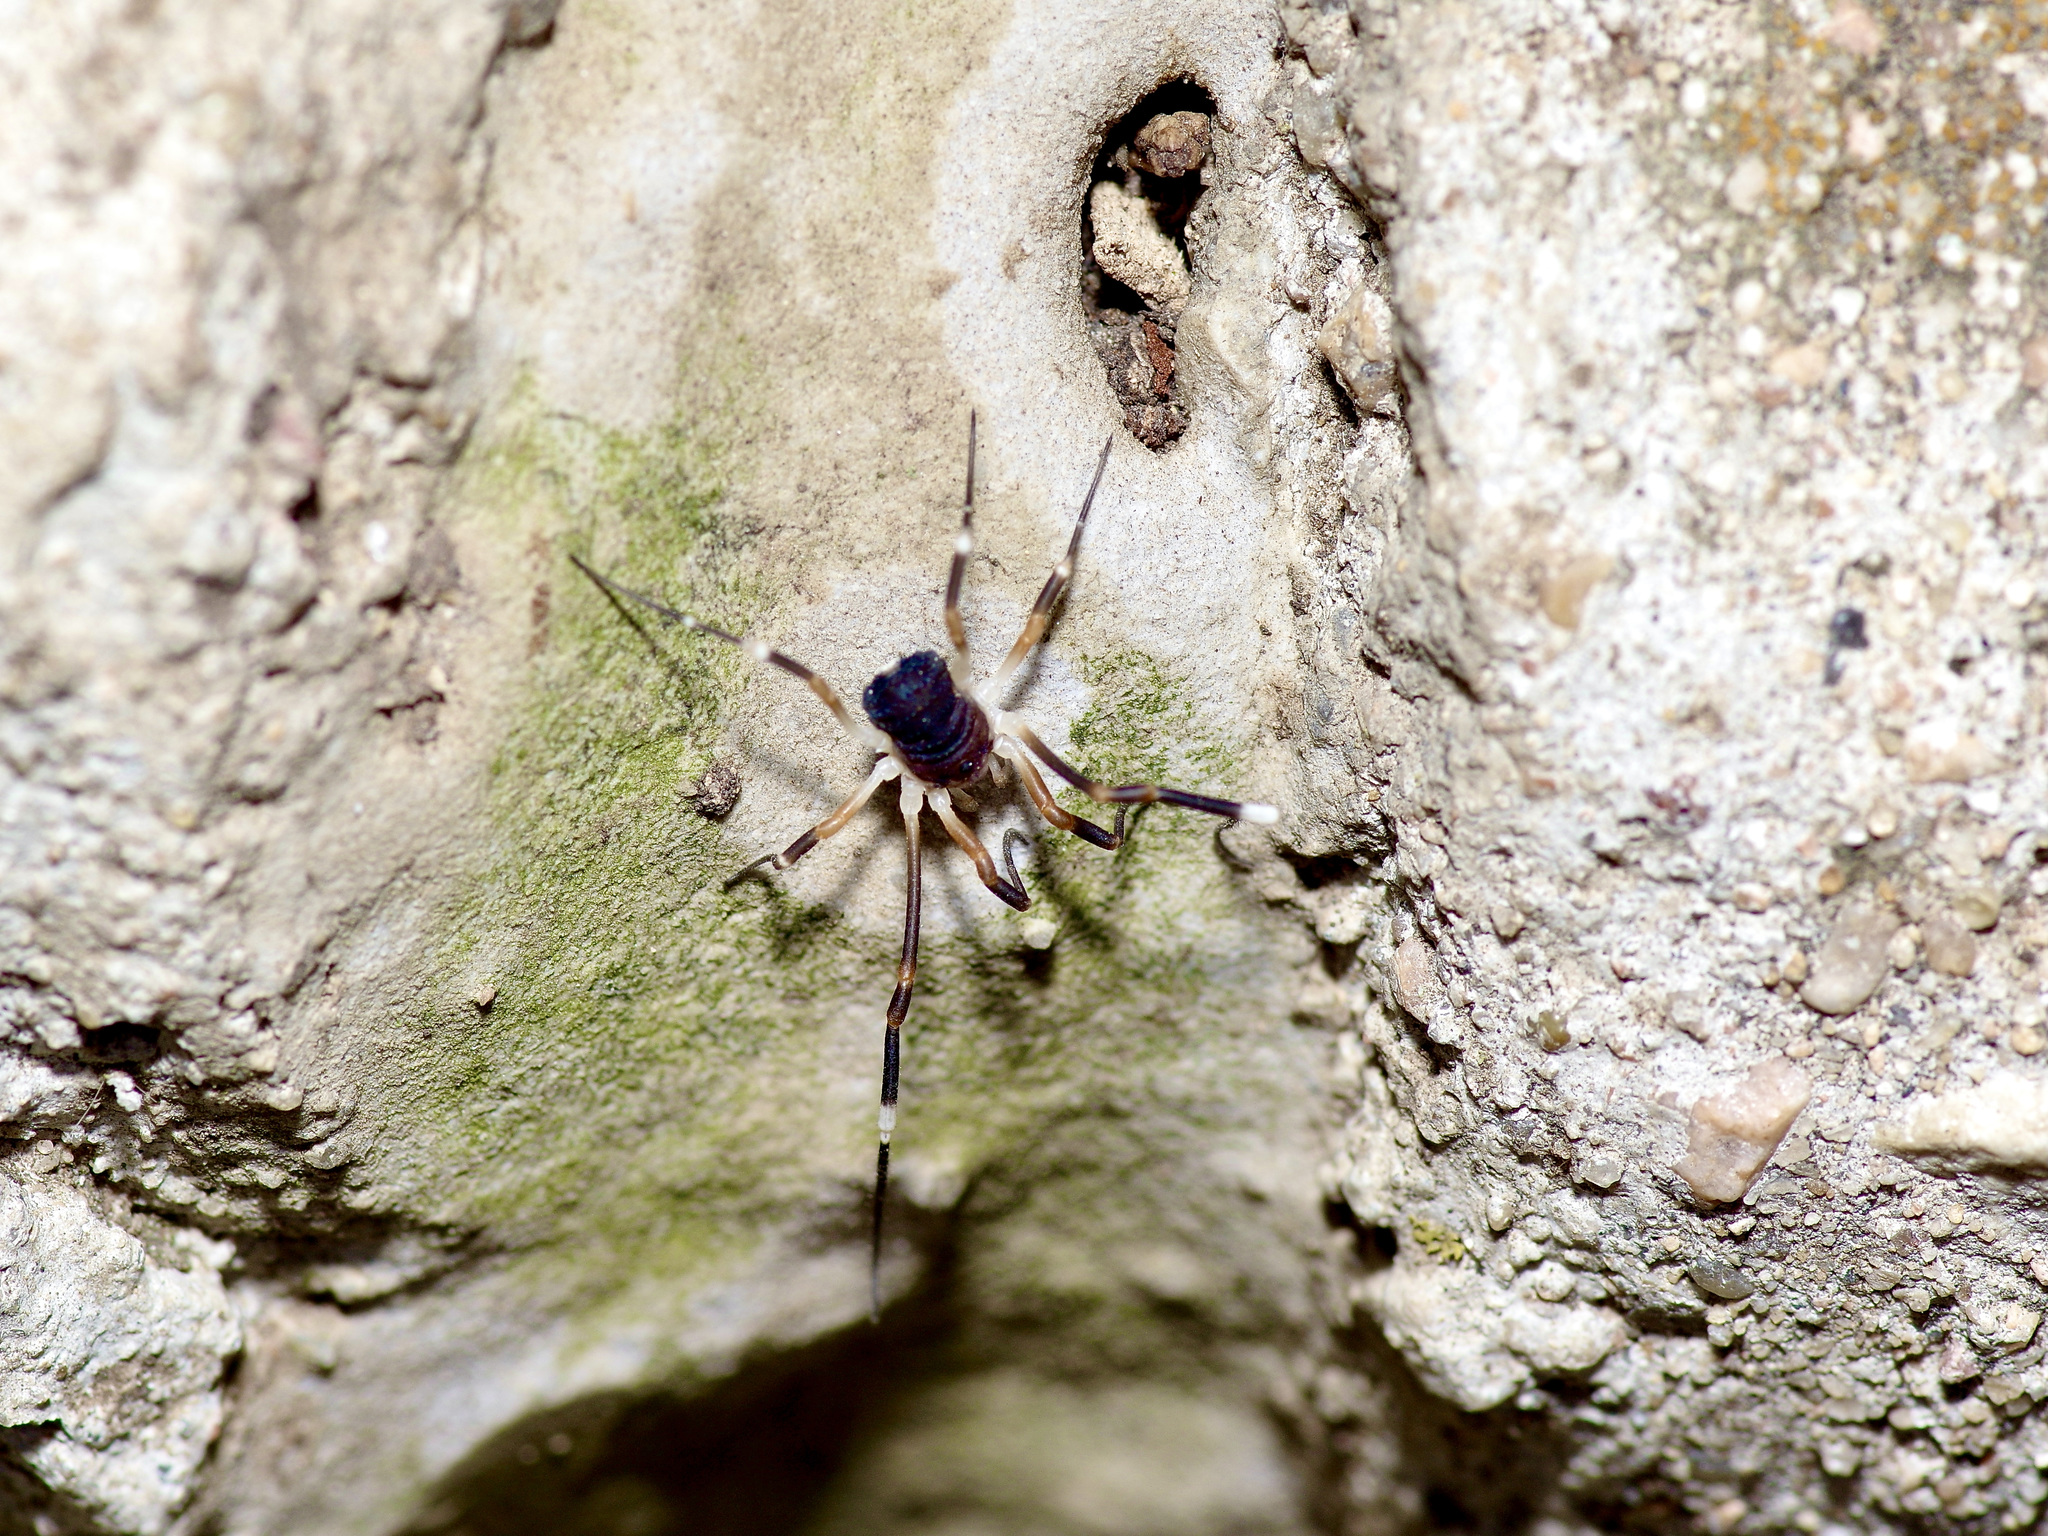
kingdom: Animalia
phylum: Arthropoda
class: Arachnida
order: Opiliones
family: Globipedidae
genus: Dalquestia
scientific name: Dalquestia formosa
